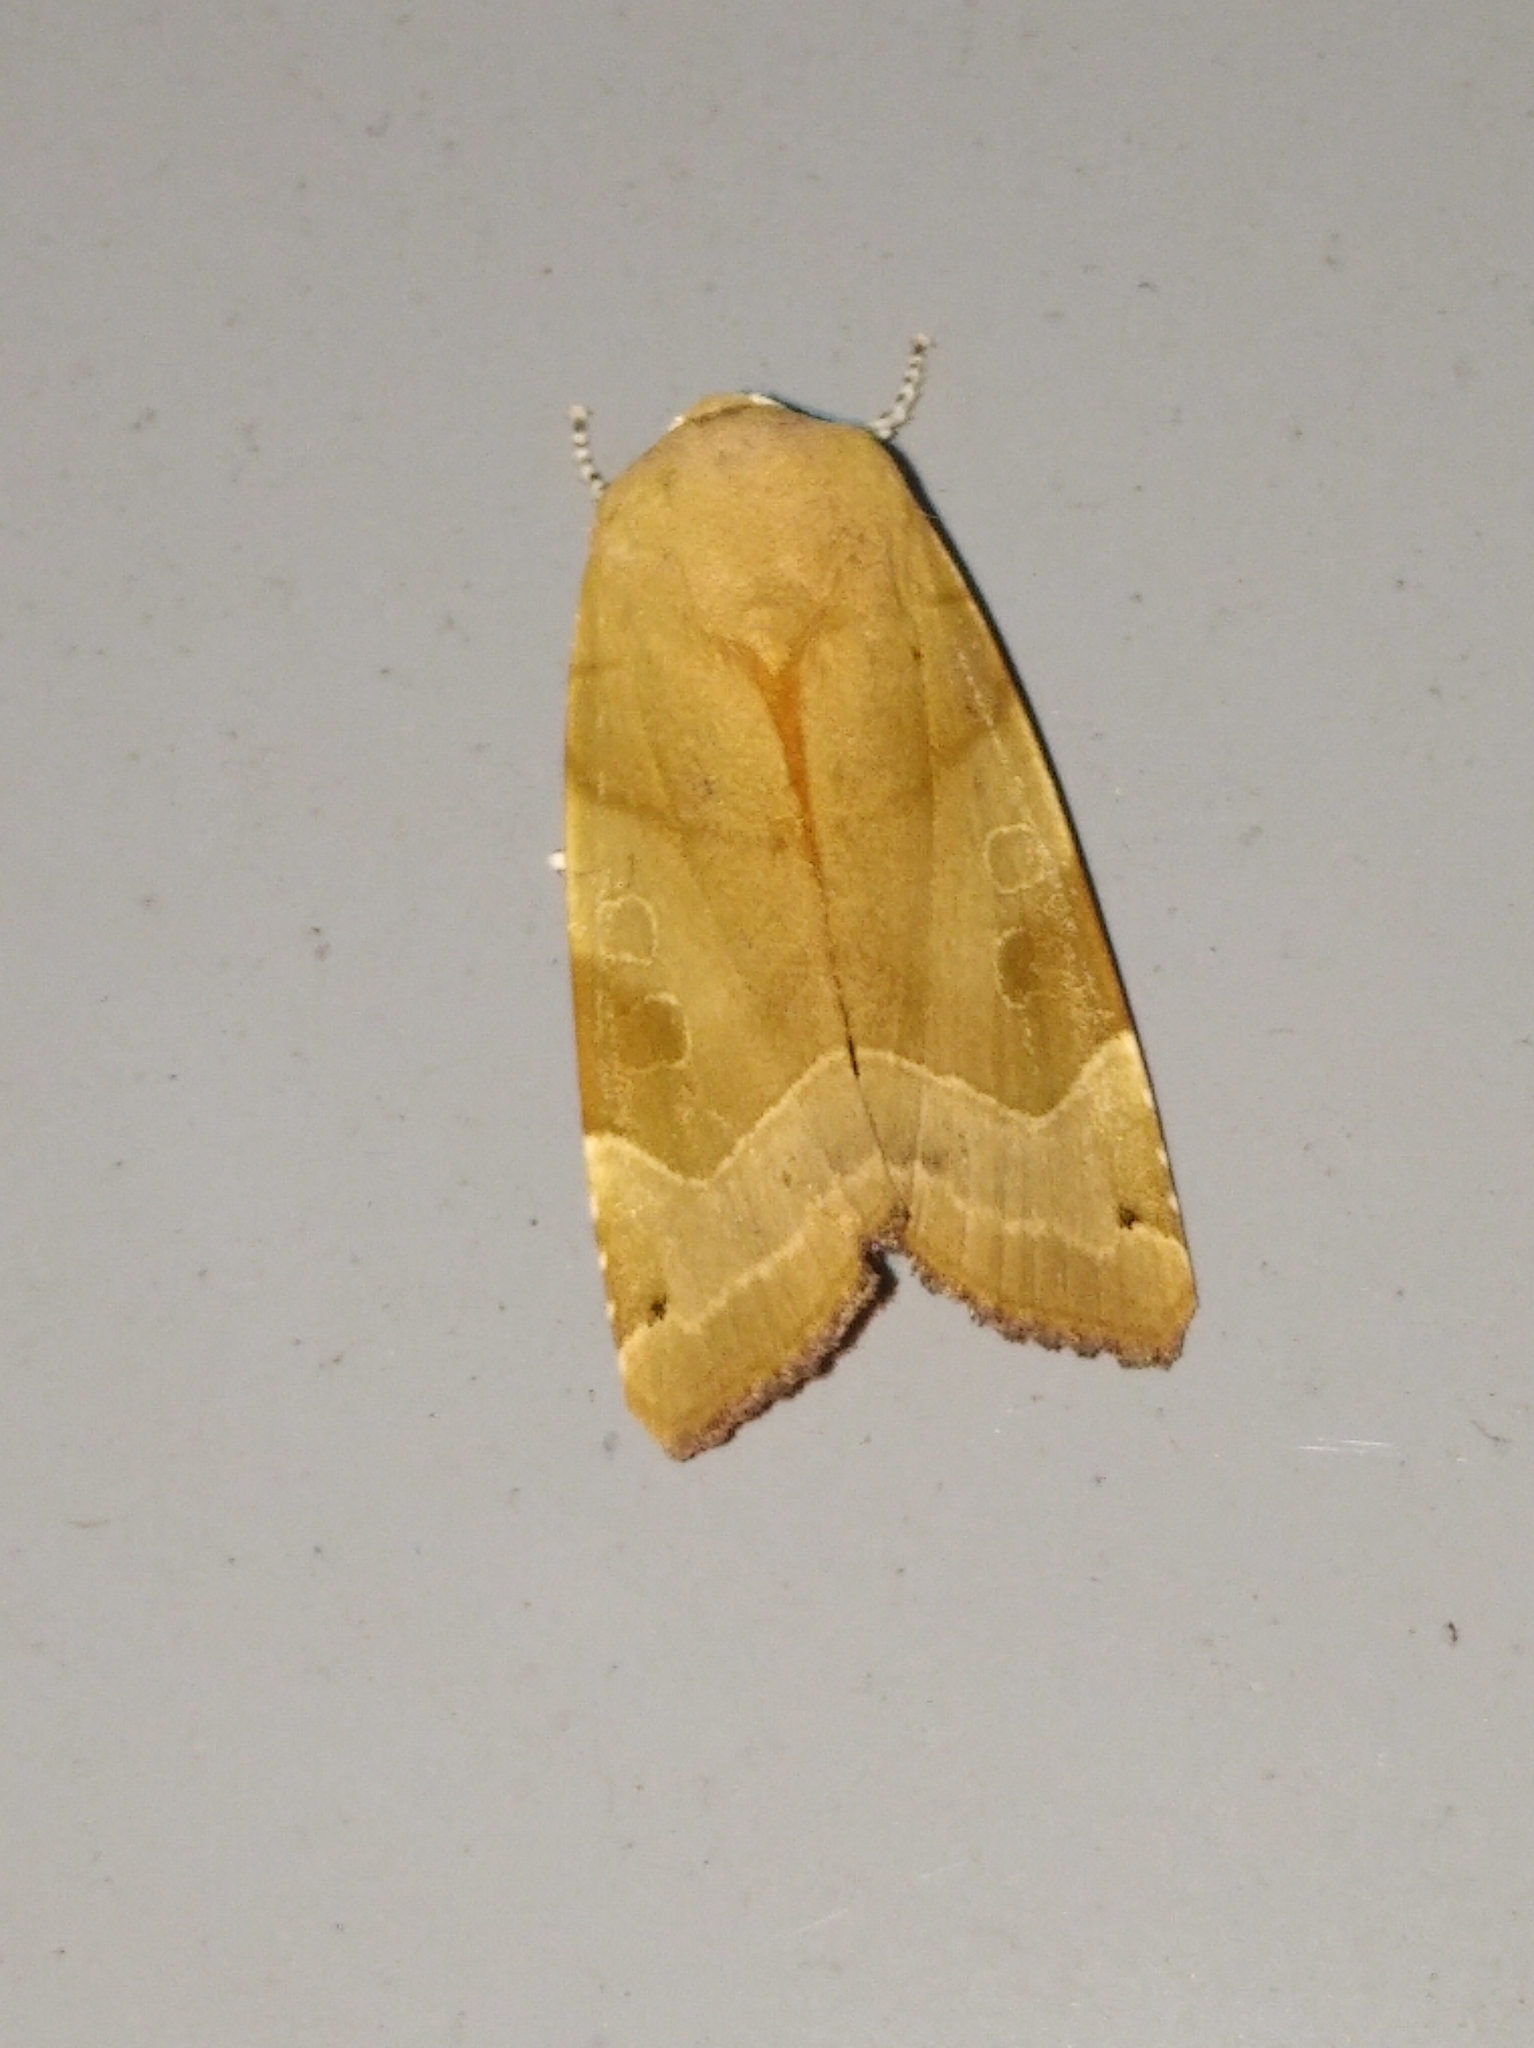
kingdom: Animalia
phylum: Arthropoda
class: Insecta
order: Lepidoptera
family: Noctuidae
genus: Noctua
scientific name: Noctua fimbriata
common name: Broad-bordered yellow underwing
